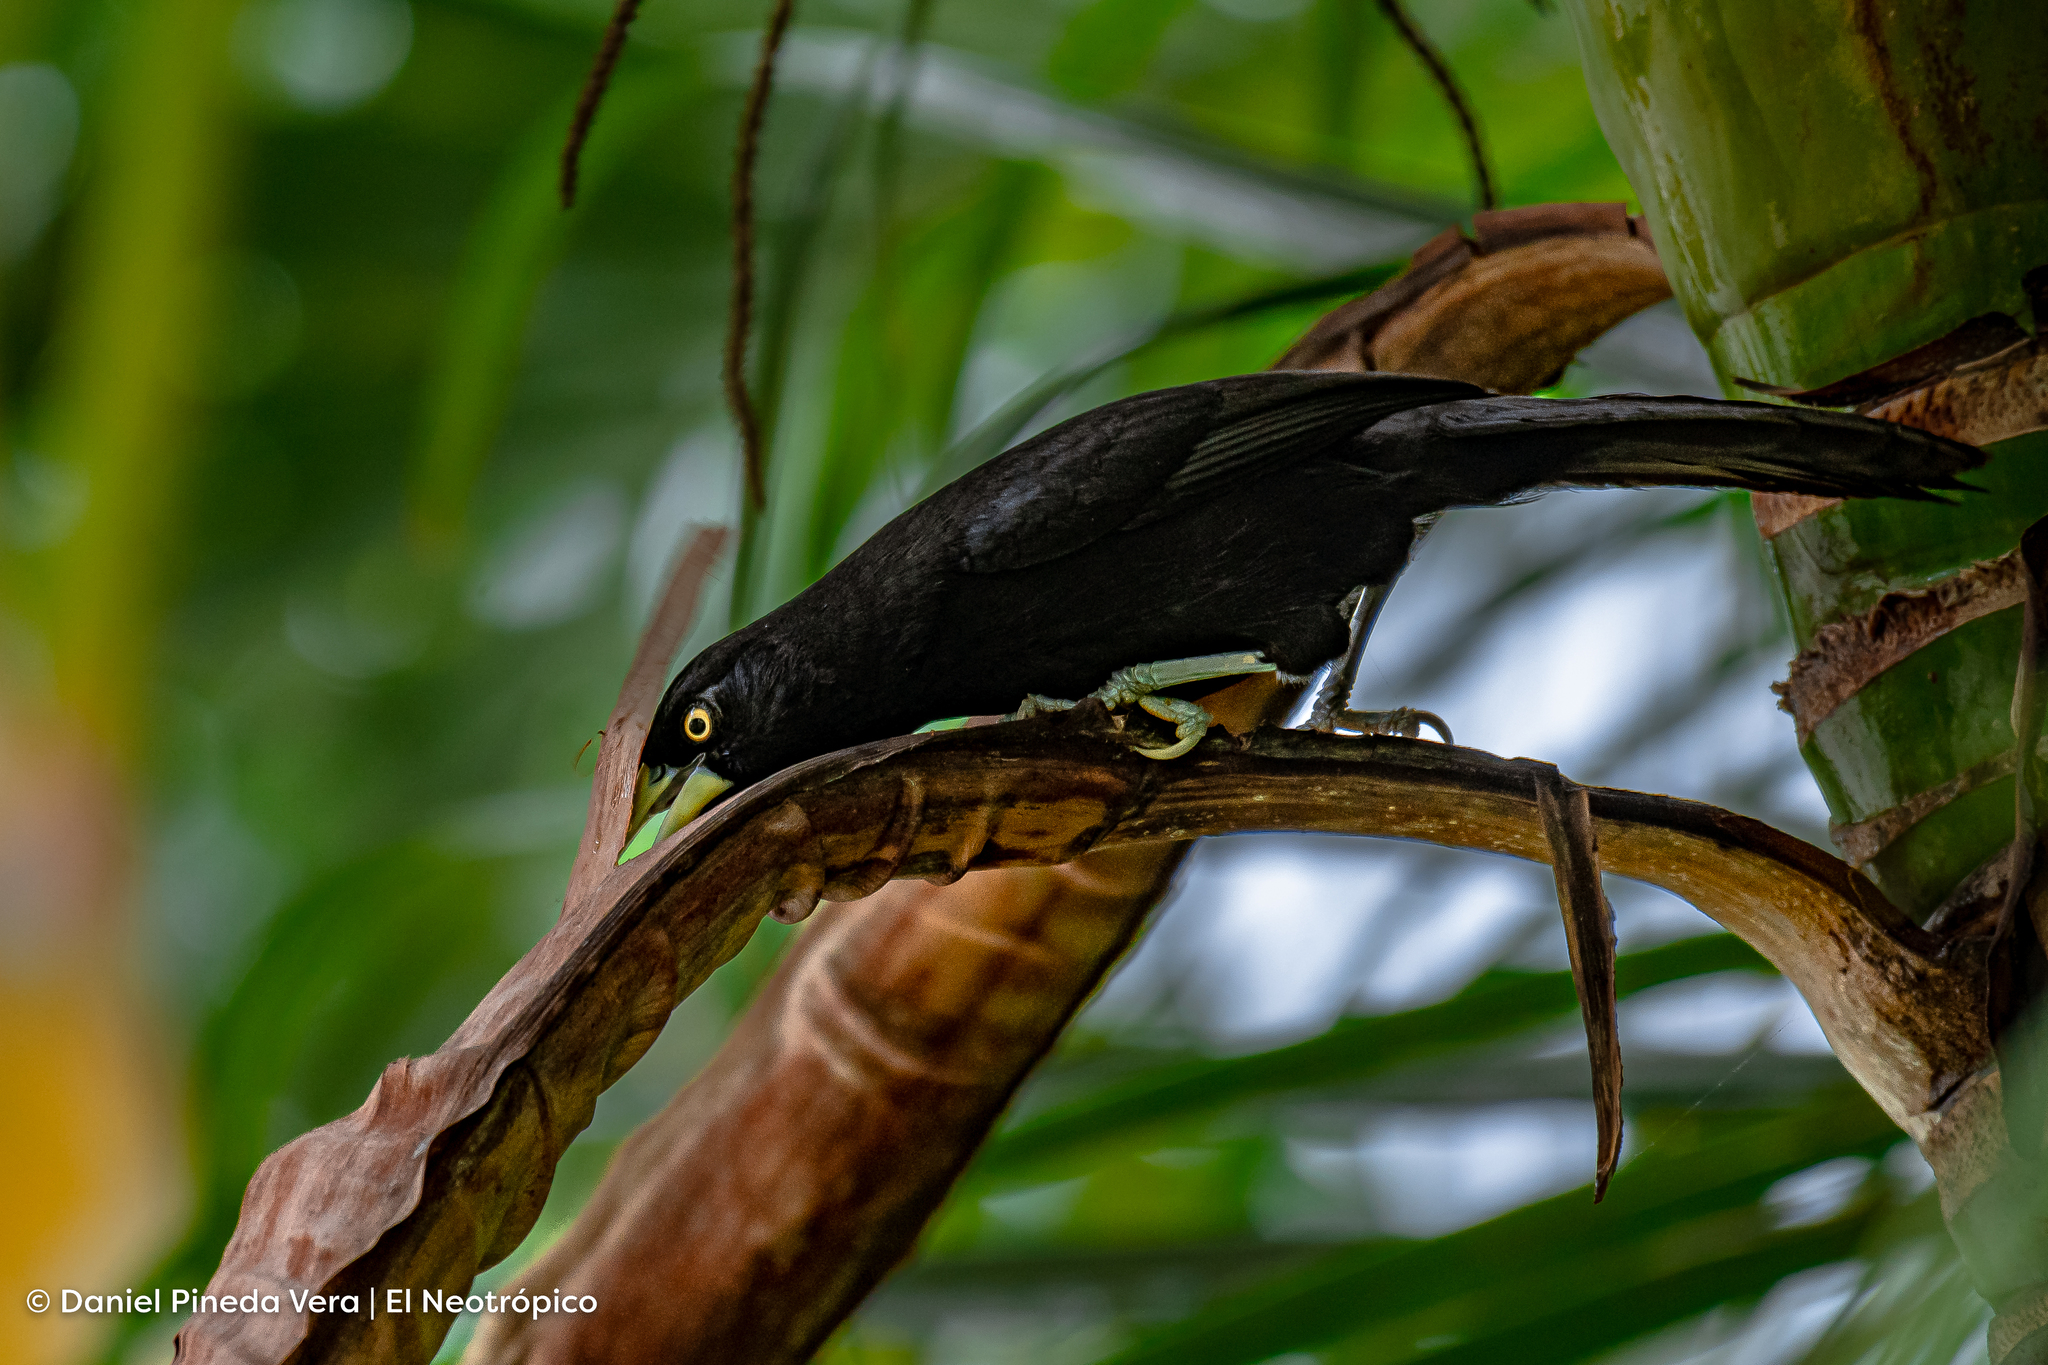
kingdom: Animalia
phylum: Chordata
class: Aves
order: Passeriformes
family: Icteridae
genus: Amblycercus
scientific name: Amblycercus holosericeus
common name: Yellow-billed cacique
